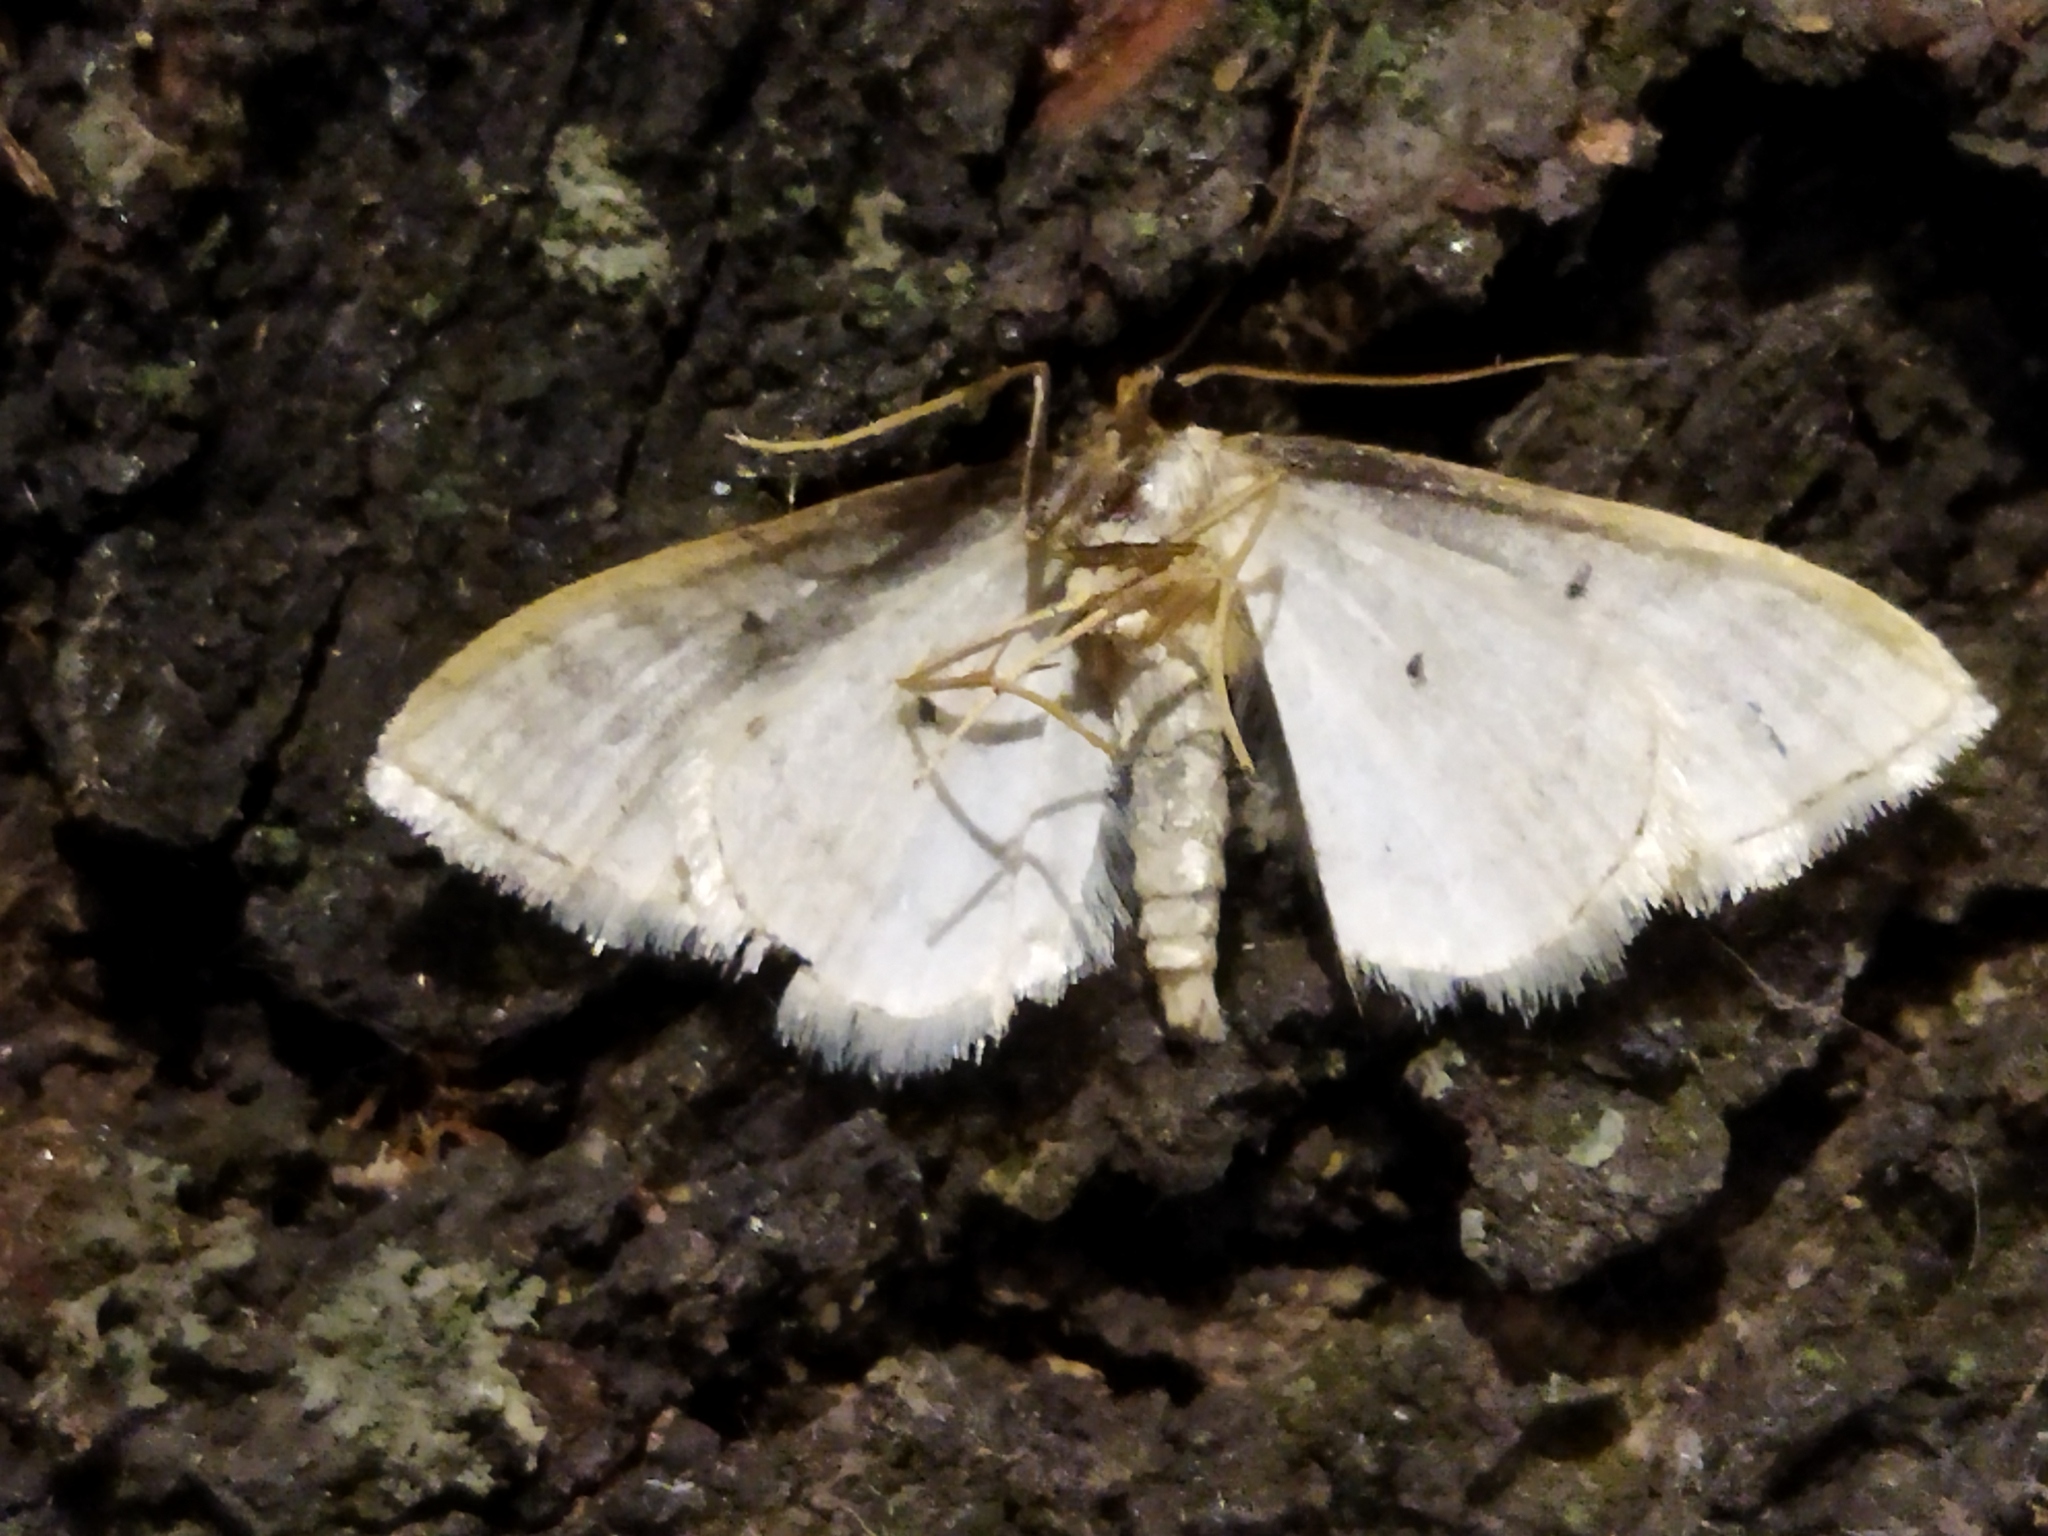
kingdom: Animalia
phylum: Arthropoda
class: Insecta
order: Lepidoptera
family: Geometridae
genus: Idaea
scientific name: Idaea subsericeata
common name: Satin wave
